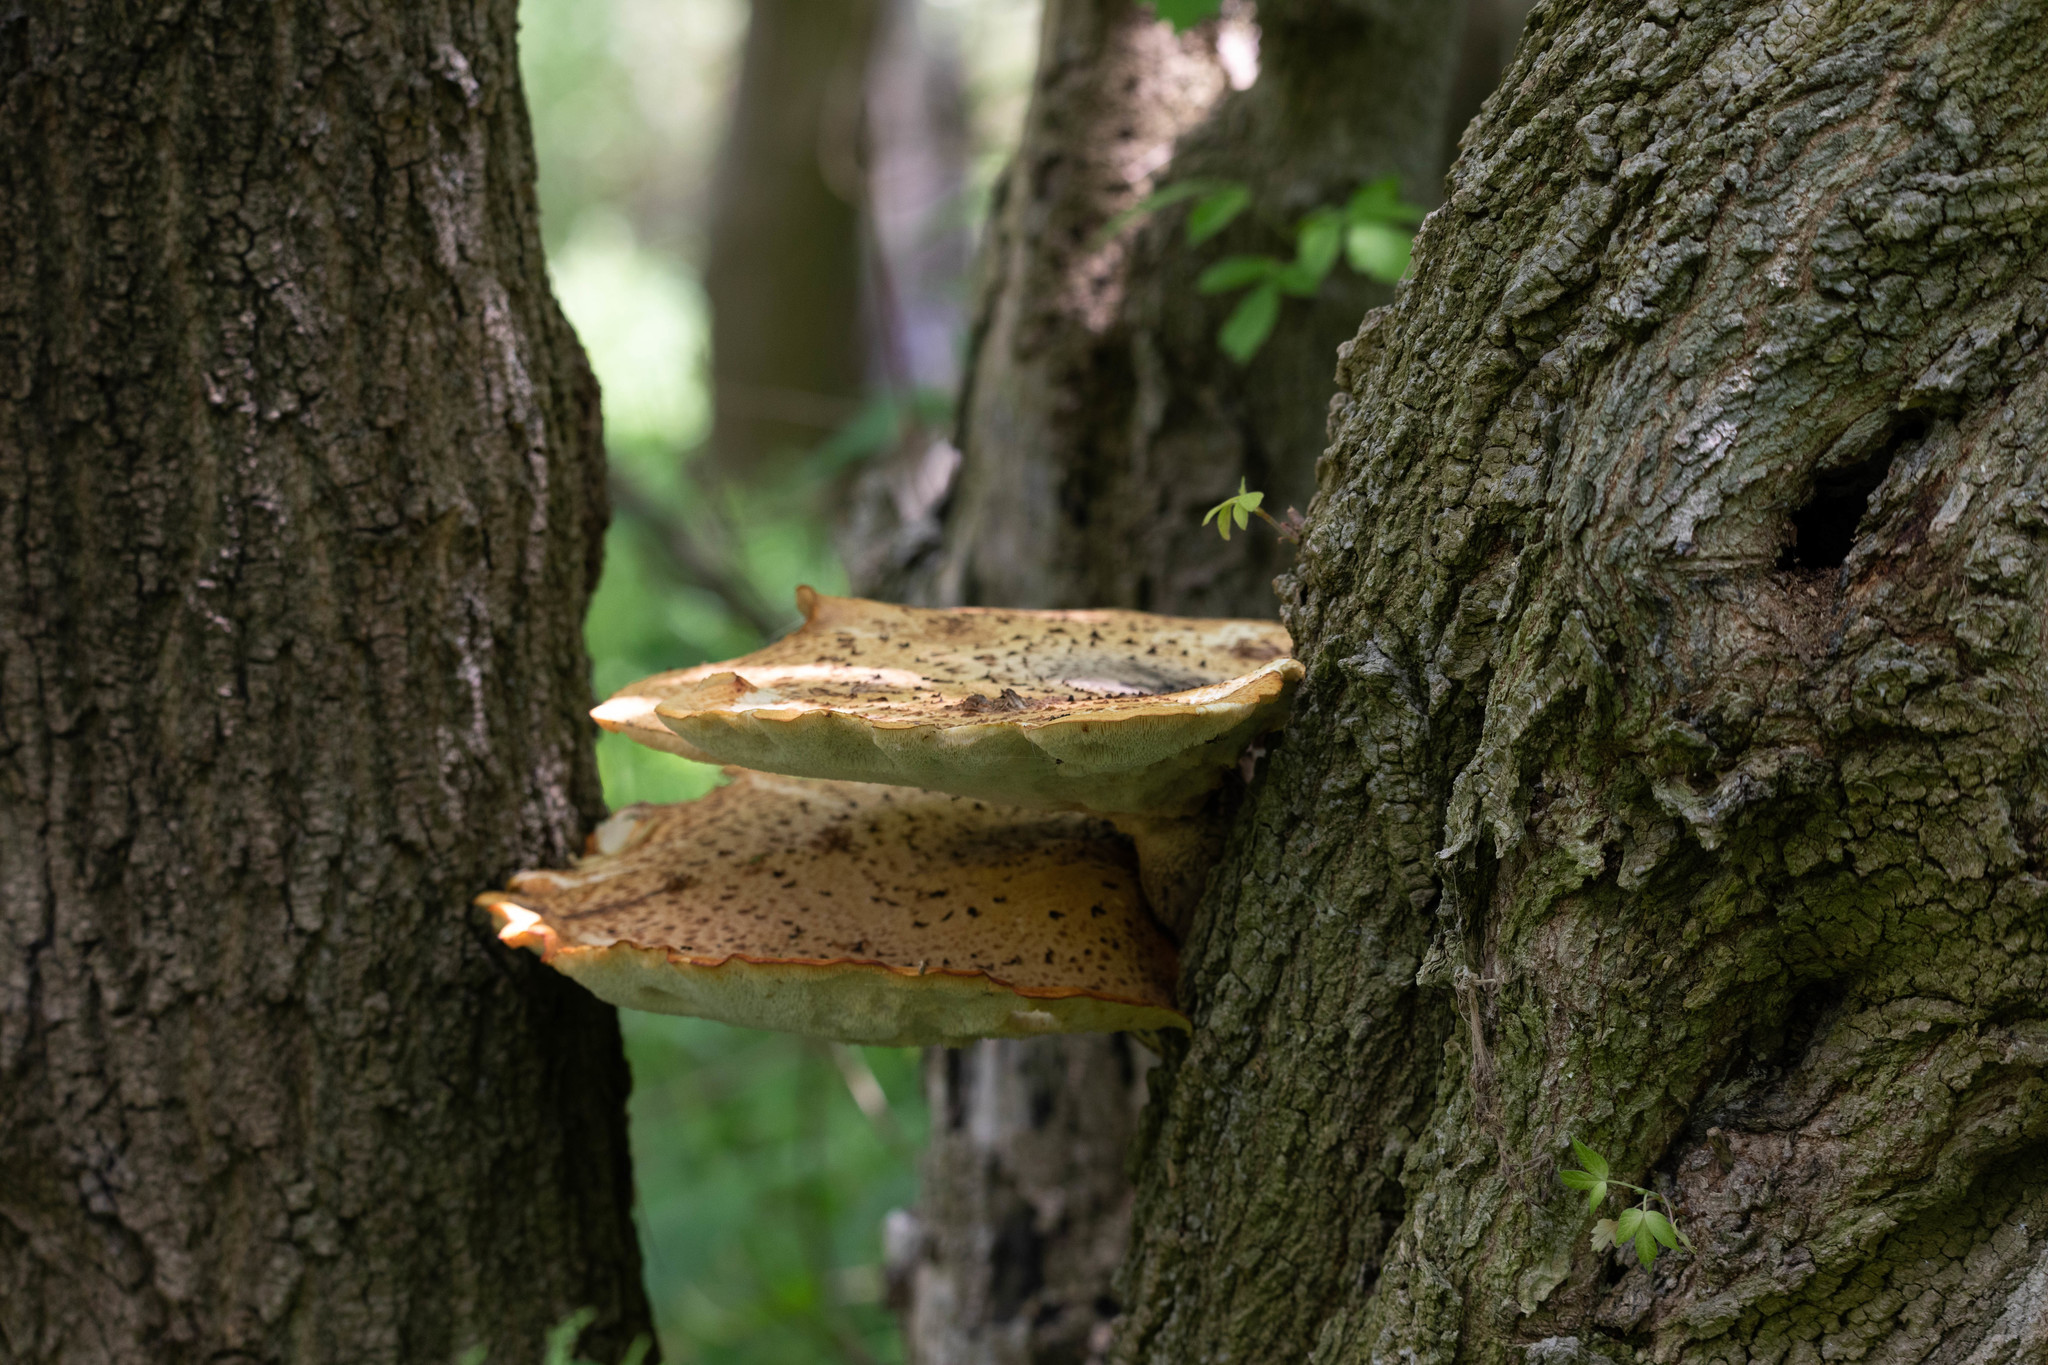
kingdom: Fungi
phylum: Basidiomycota
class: Agaricomycetes
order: Polyporales
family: Polyporaceae
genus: Cerioporus
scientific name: Cerioporus squamosus
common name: Dryad's saddle
